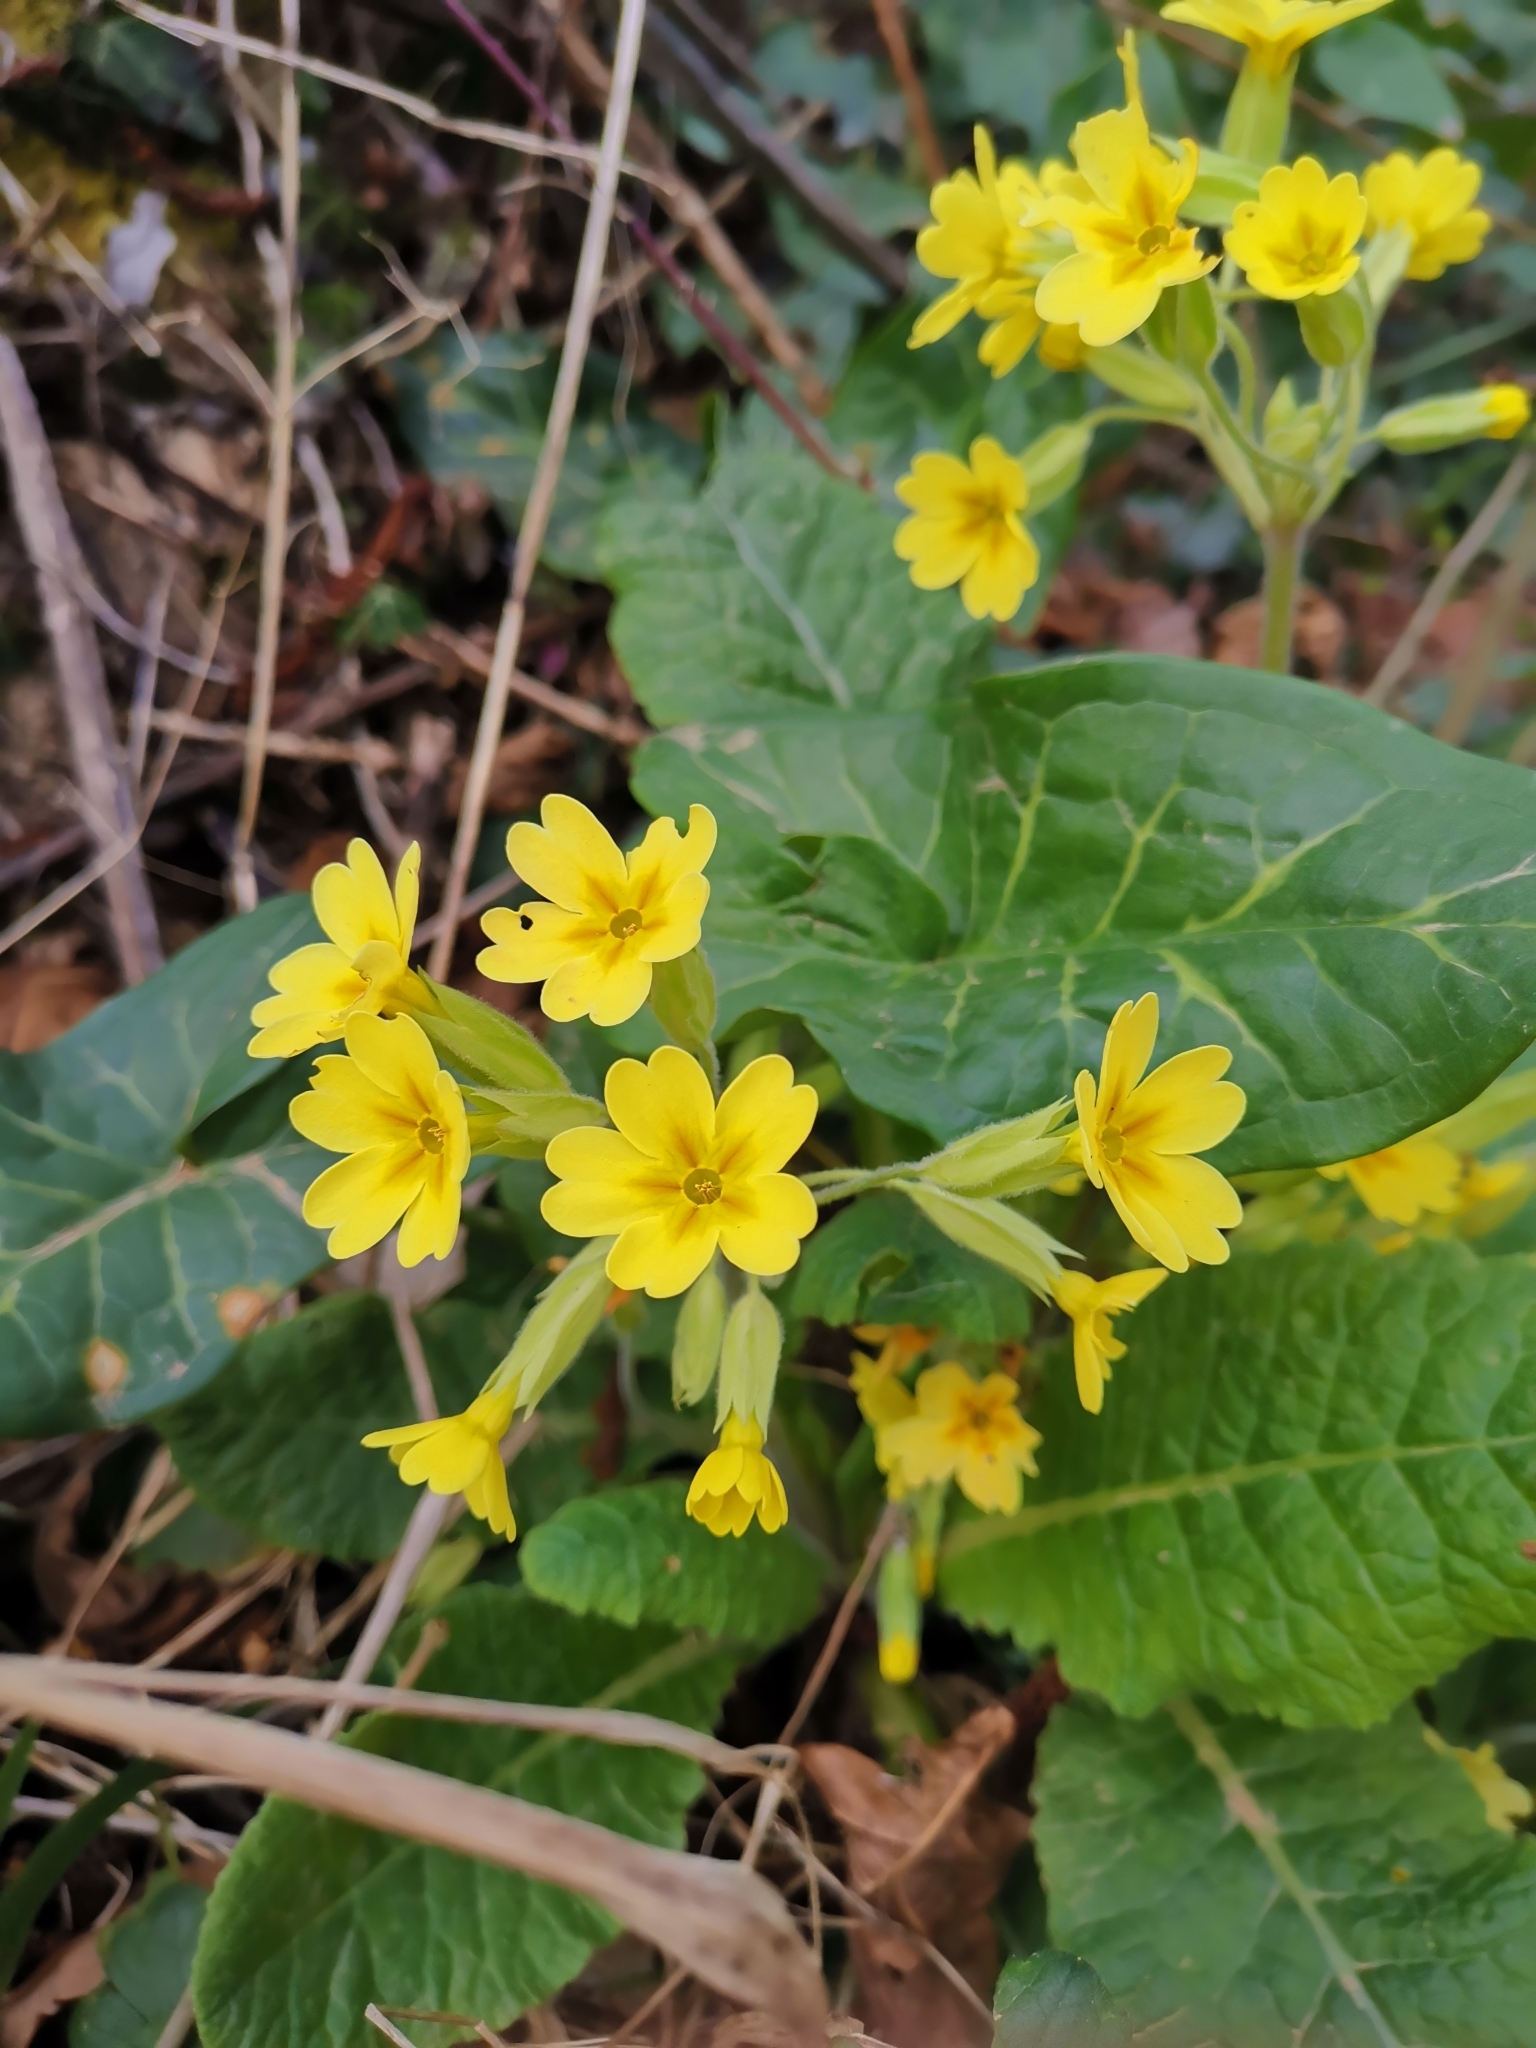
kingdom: Plantae
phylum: Tracheophyta
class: Magnoliopsida
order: Ericales
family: Primulaceae
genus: Primula
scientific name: Primula polyantha
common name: False oxlip
